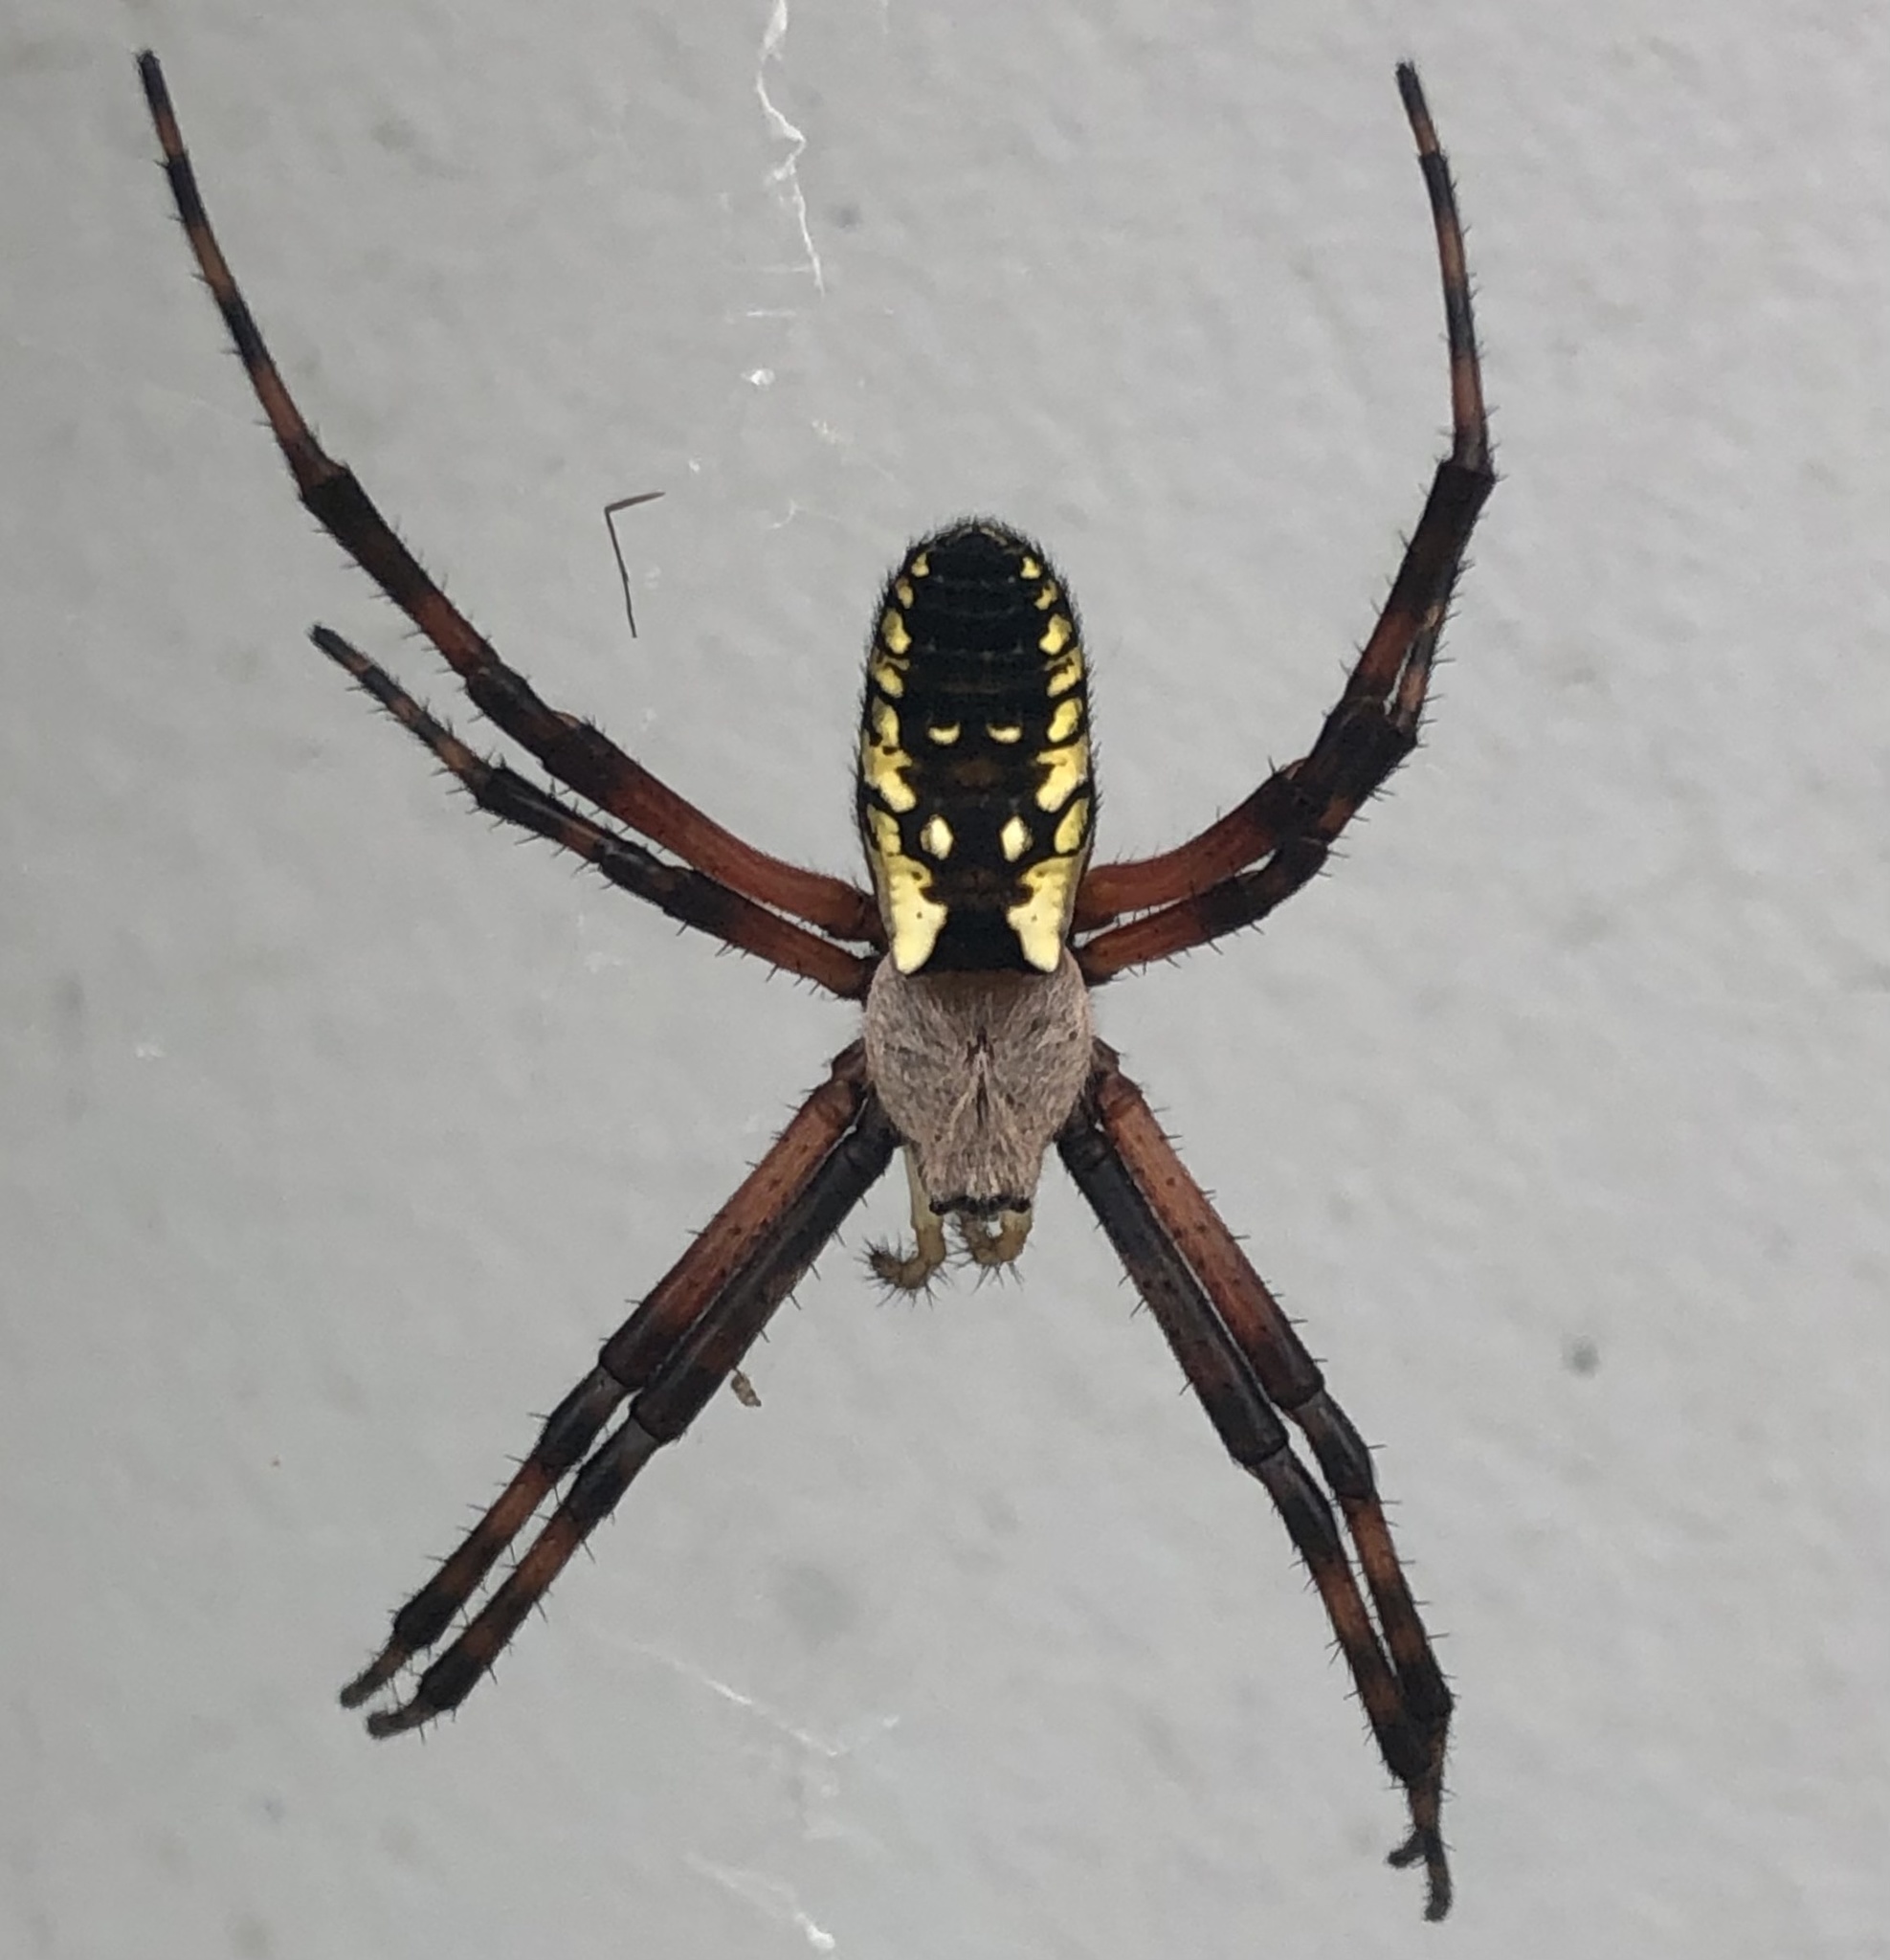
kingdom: Animalia
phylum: Arthropoda
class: Arachnida
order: Araneae
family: Araneidae
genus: Argiope
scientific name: Argiope aurantia
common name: Orb weavers
